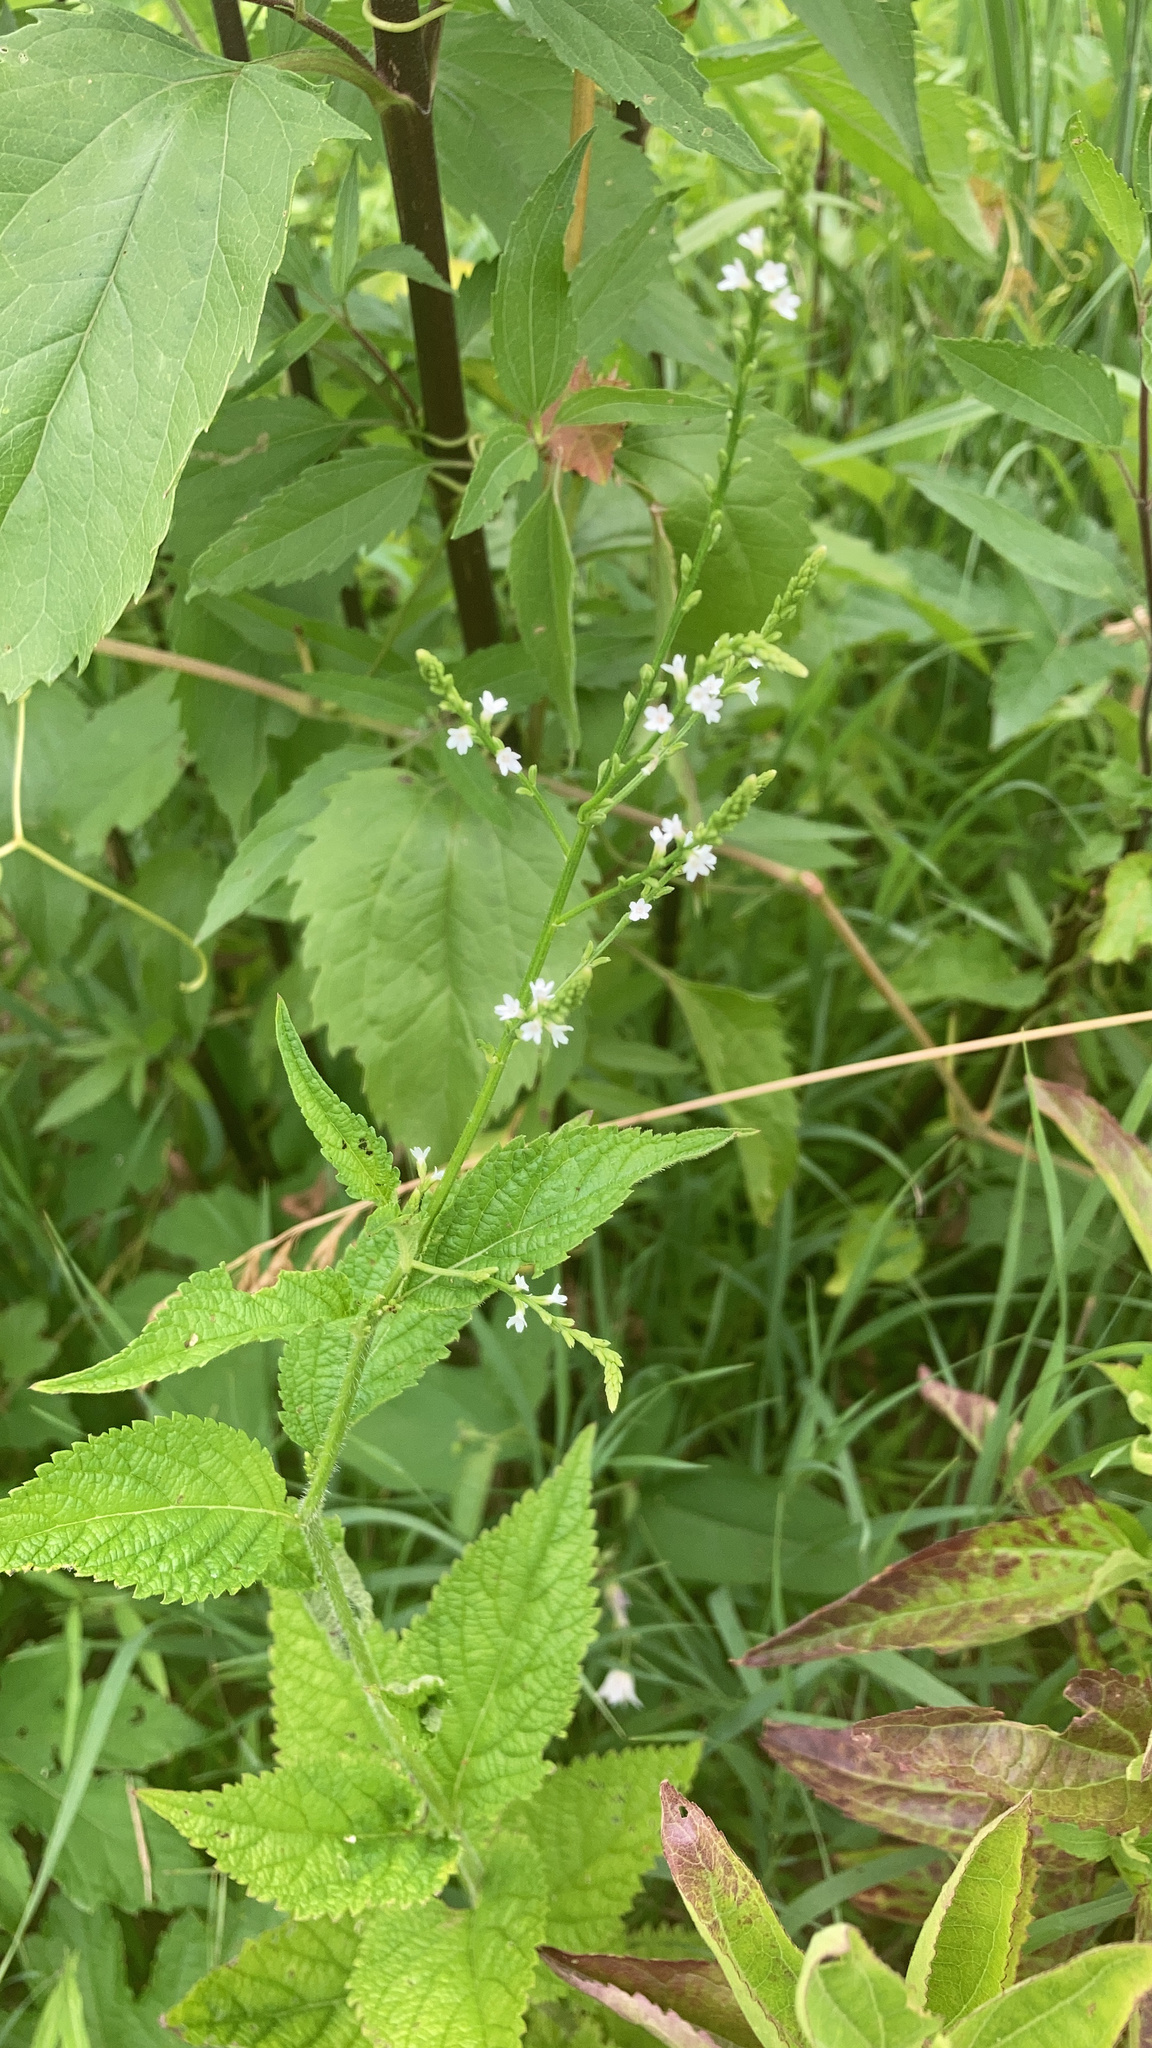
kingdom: Plantae
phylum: Tracheophyta
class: Magnoliopsida
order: Lamiales
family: Verbenaceae
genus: Verbena
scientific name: Verbena urticifolia
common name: Nettle-leaved vervain
